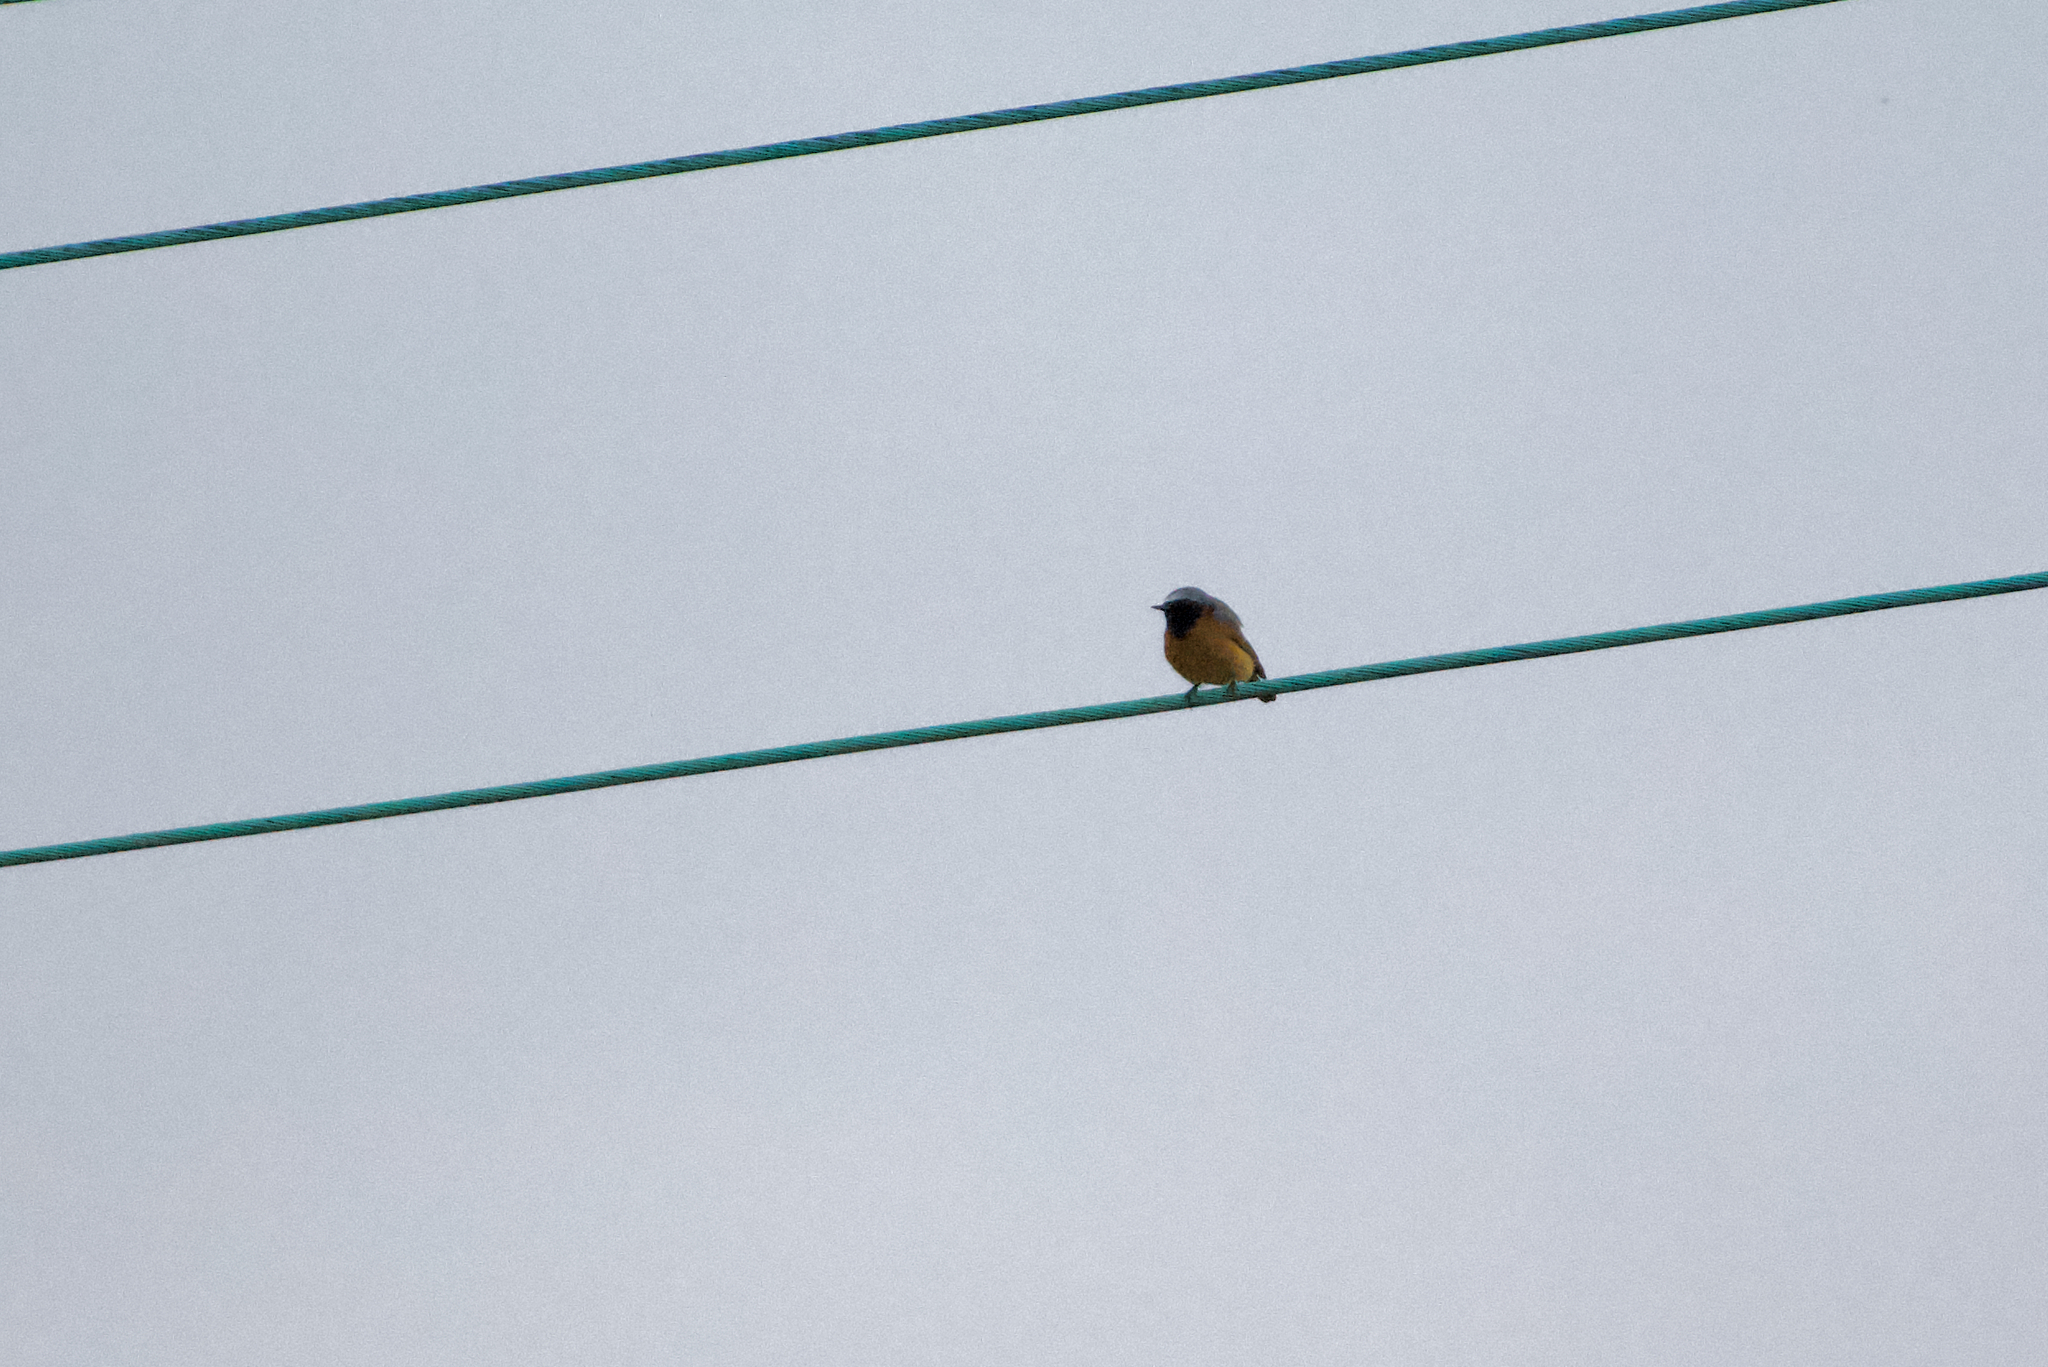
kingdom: Animalia
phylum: Chordata
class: Aves
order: Passeriformes
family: Muscicapidae
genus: Phoenicurus
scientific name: Phoenicurus phoenicurus
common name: Common redstart
